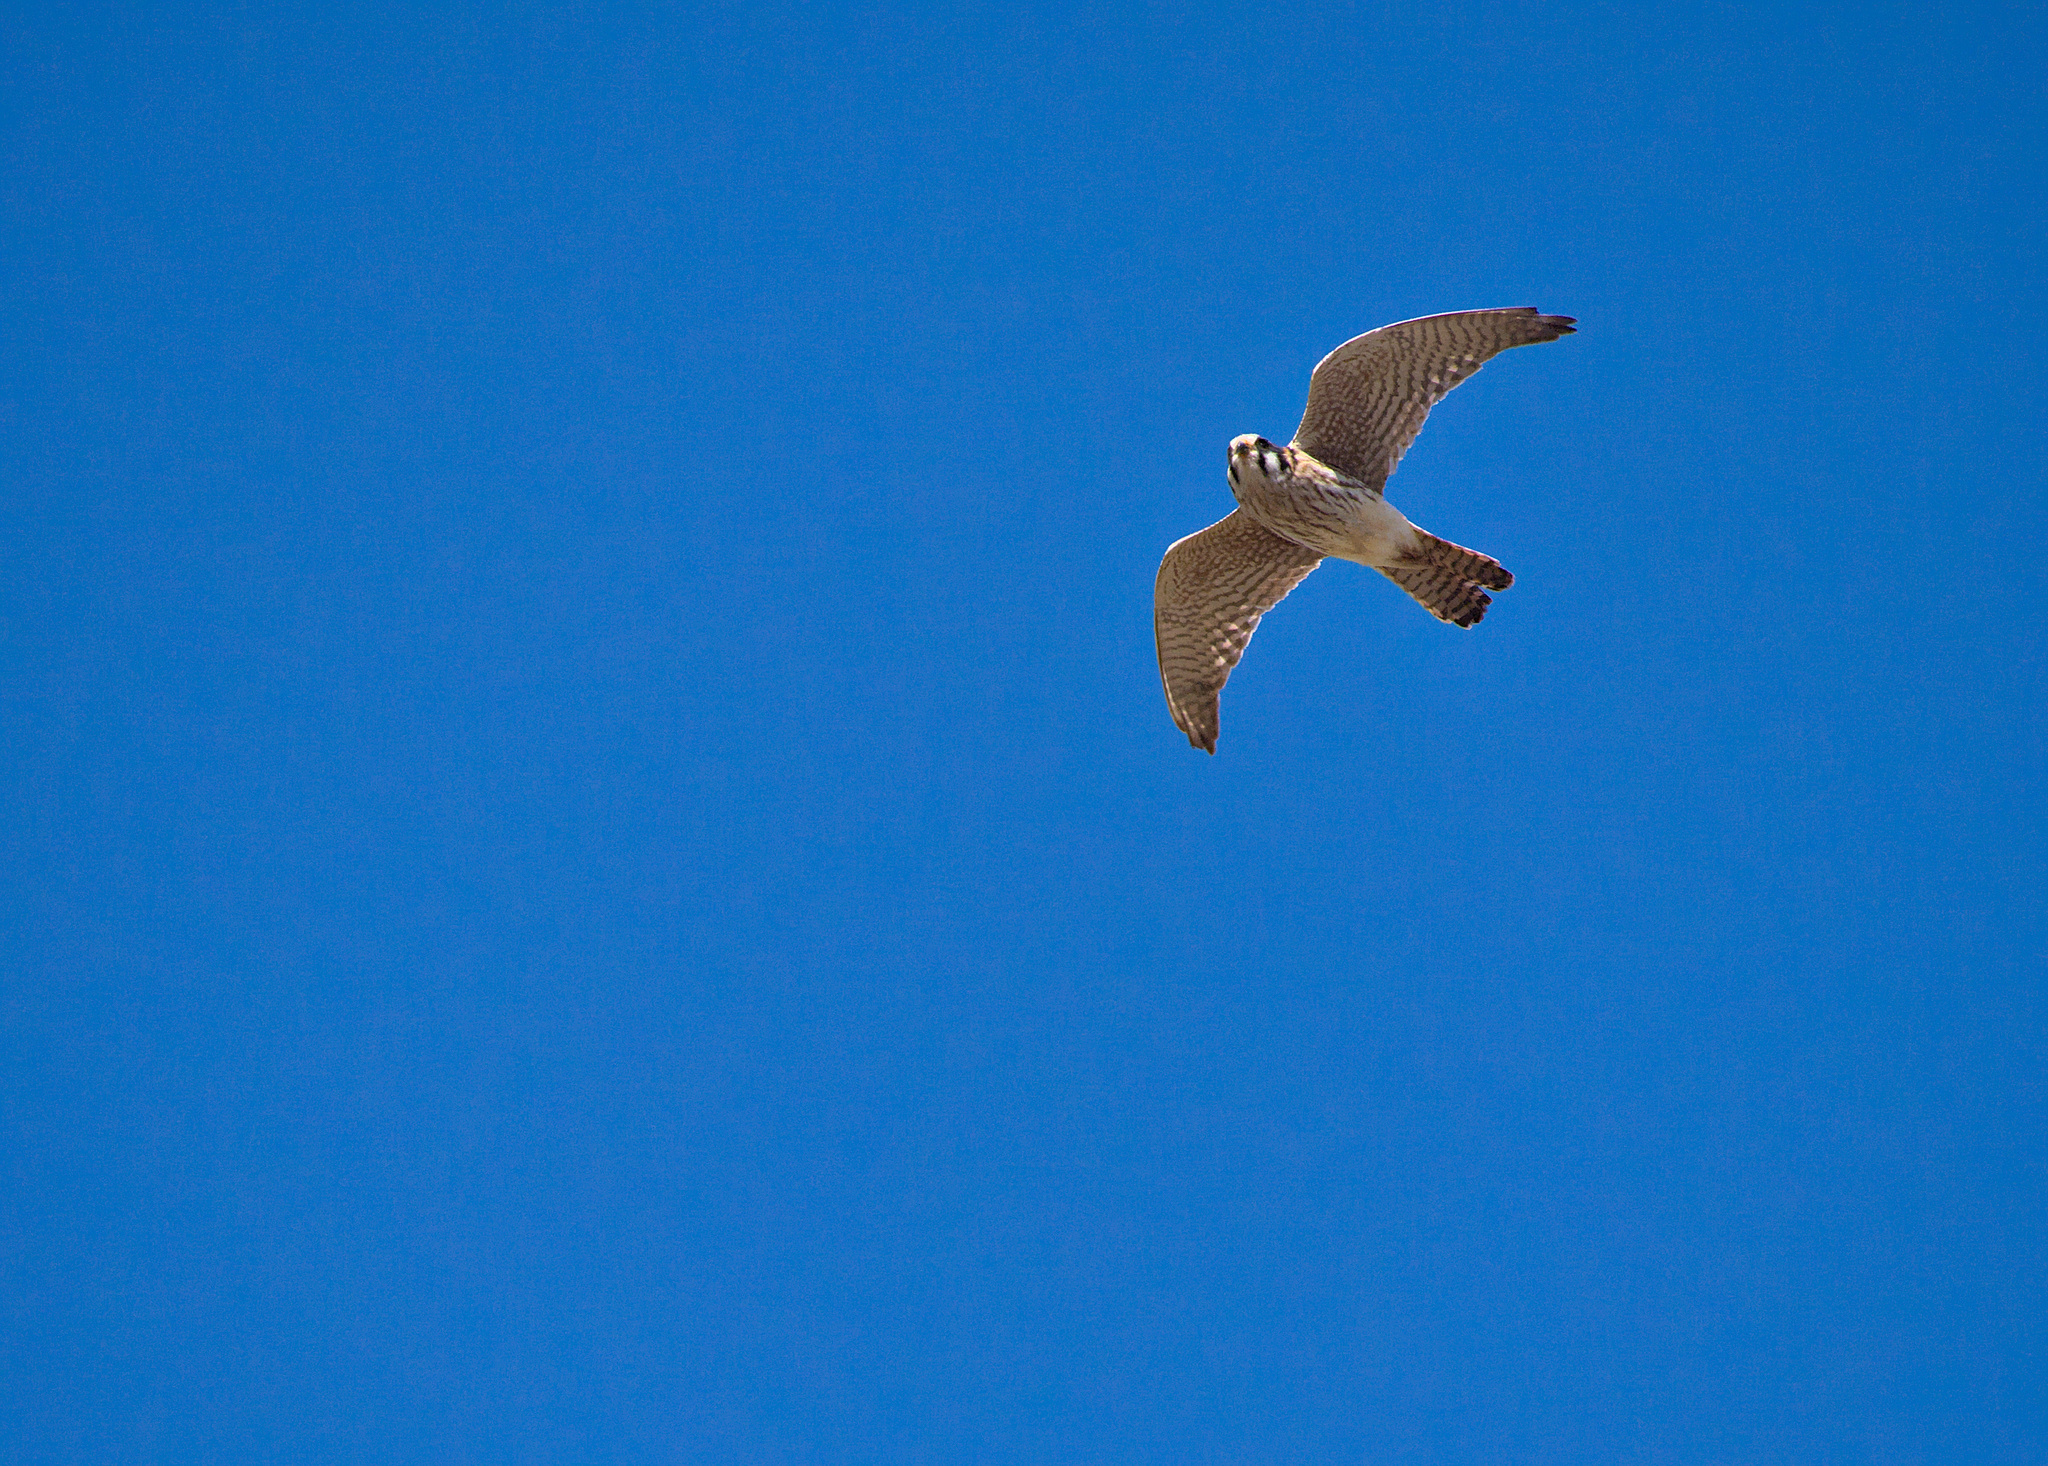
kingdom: Animalia
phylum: Chordata
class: Aves
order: Falconiformes
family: Falconidae
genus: Falco
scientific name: Falco sparverius
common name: American kestrel
